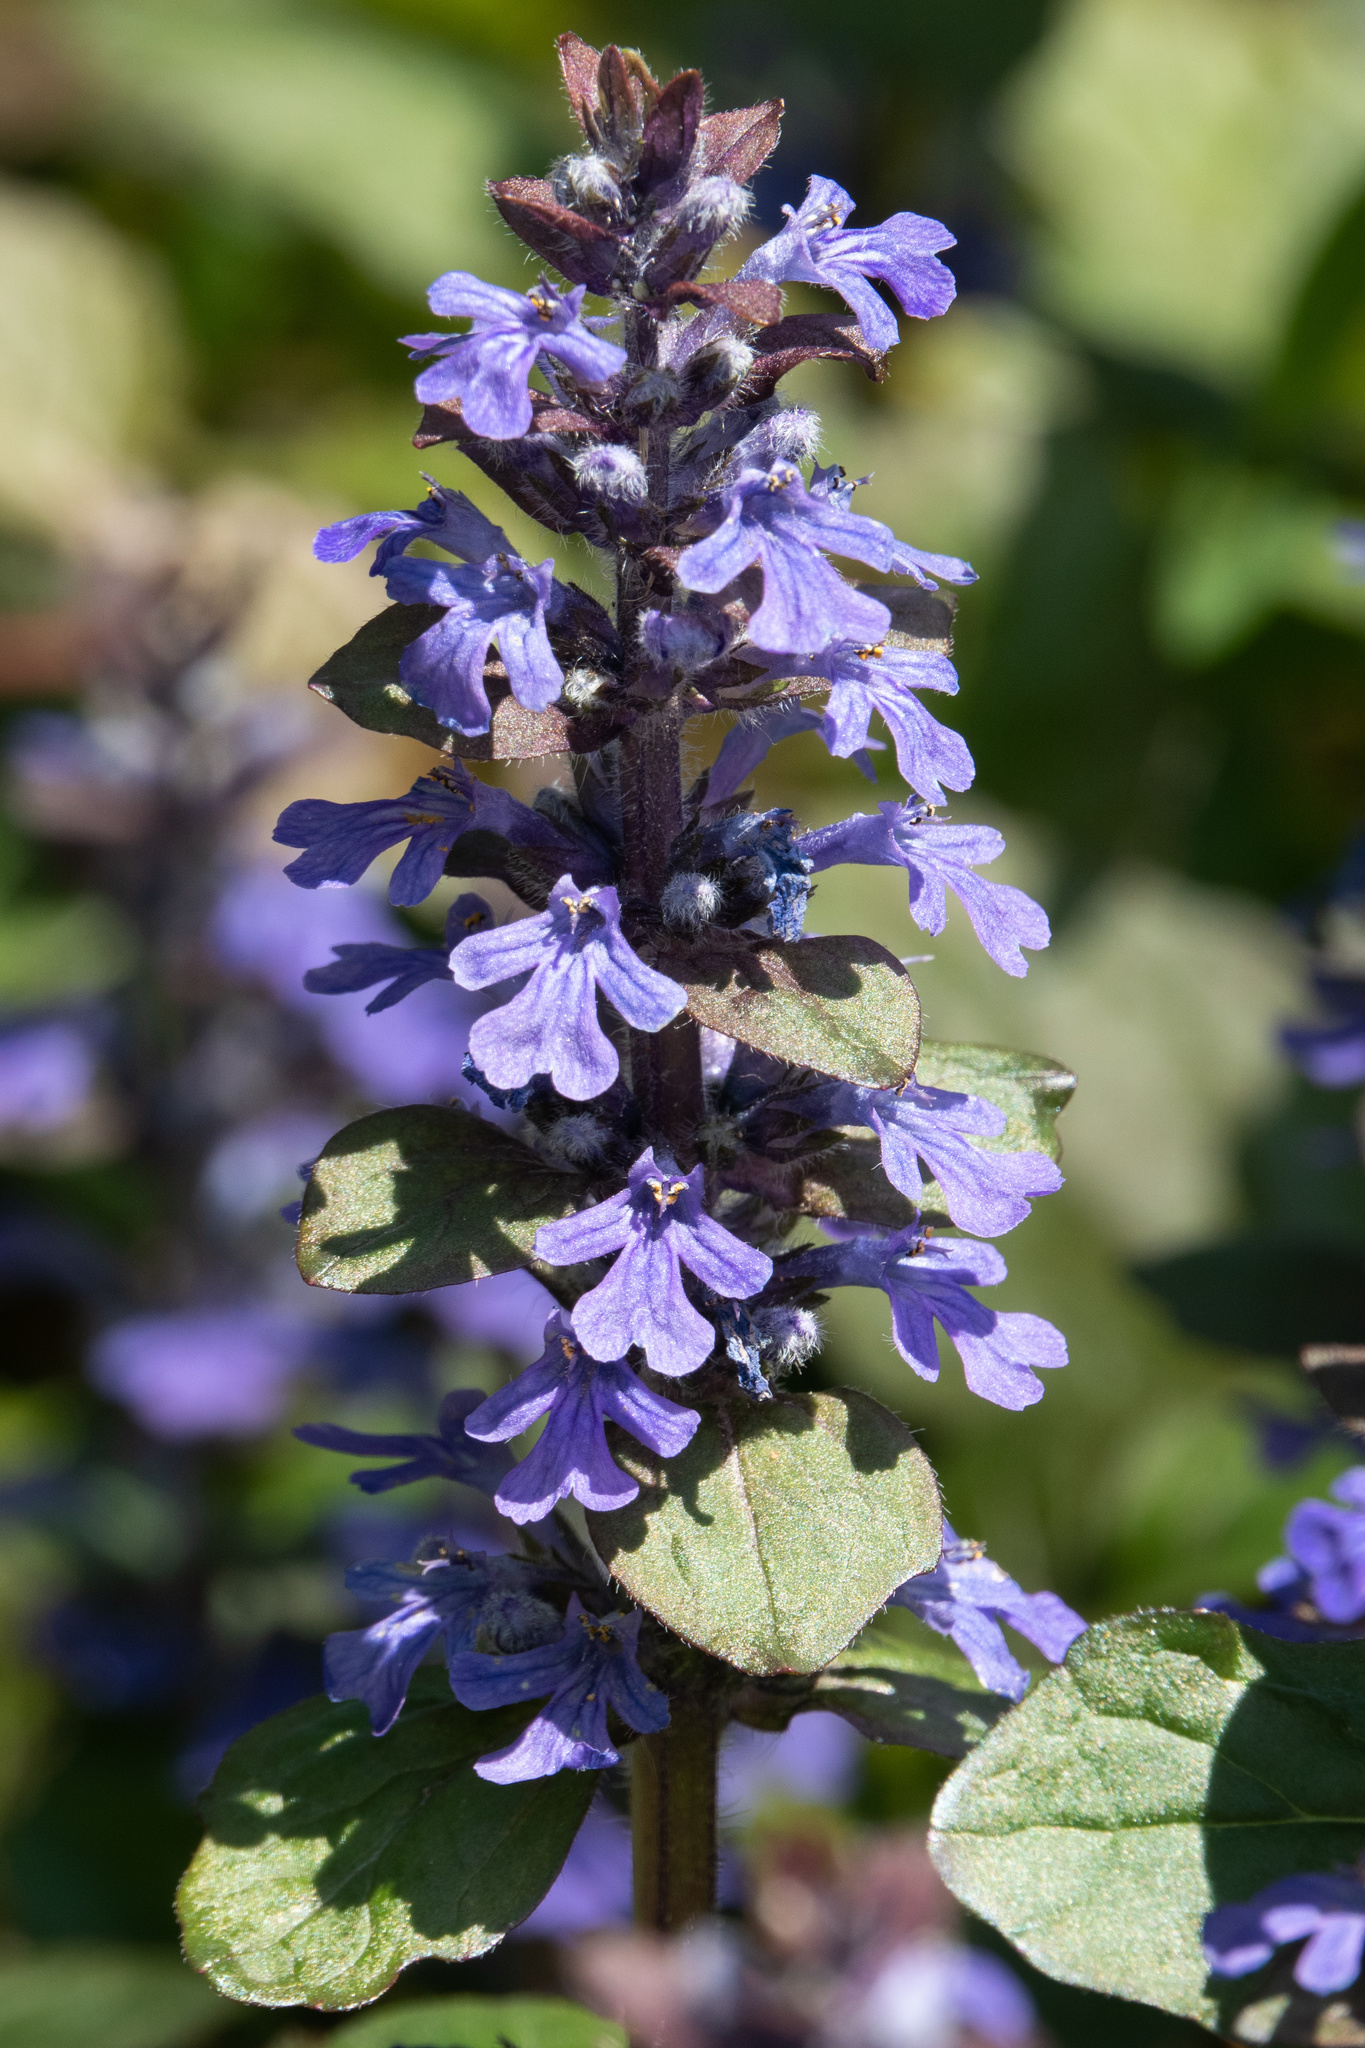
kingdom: Plantae
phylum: Tracheophyta
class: Magnoliopsida
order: Lamiales
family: Lamiaceae
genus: Ajuga
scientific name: Ajuga reptans
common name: Bugle
